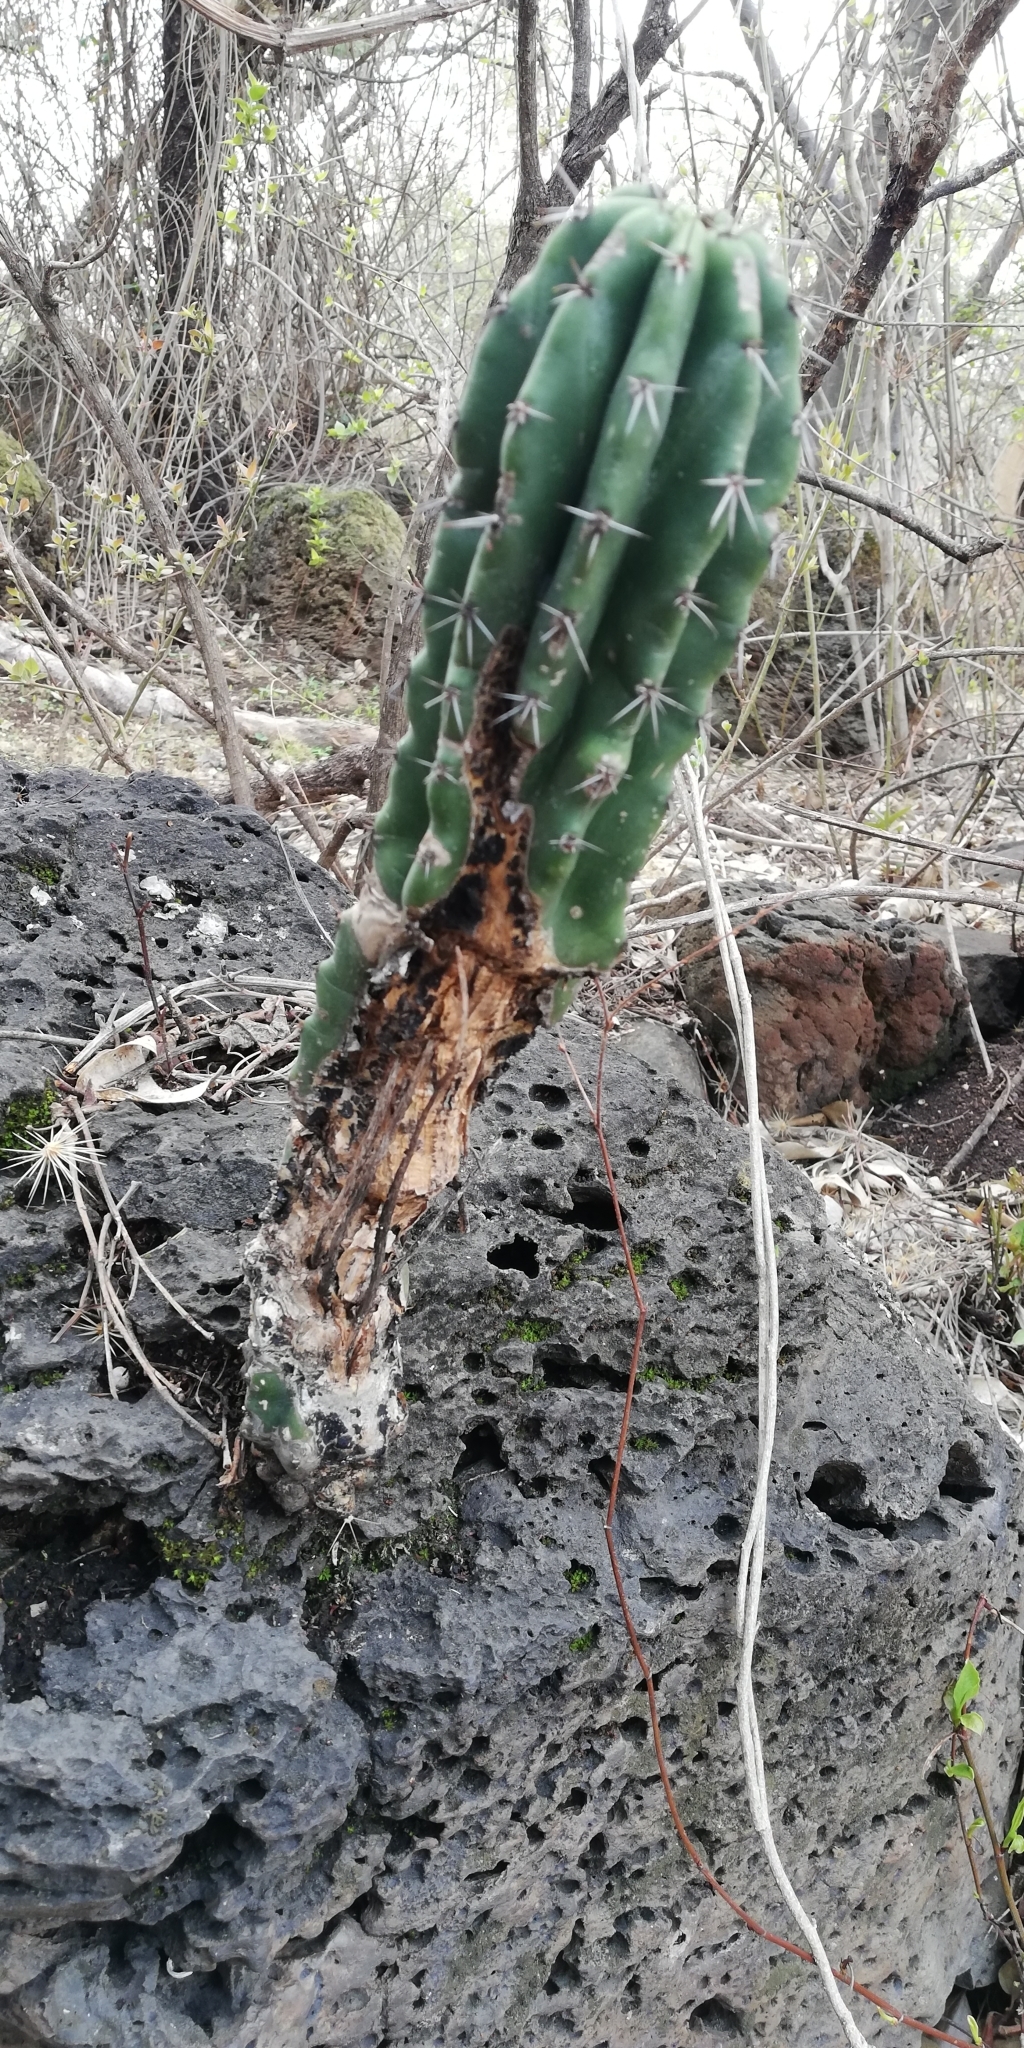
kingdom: Plantae
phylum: Tracheophyta
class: Magnoliopsida
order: Caryophyllales
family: Cactaceae
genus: Stenocereus
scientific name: Stenocereus queretaroensis
